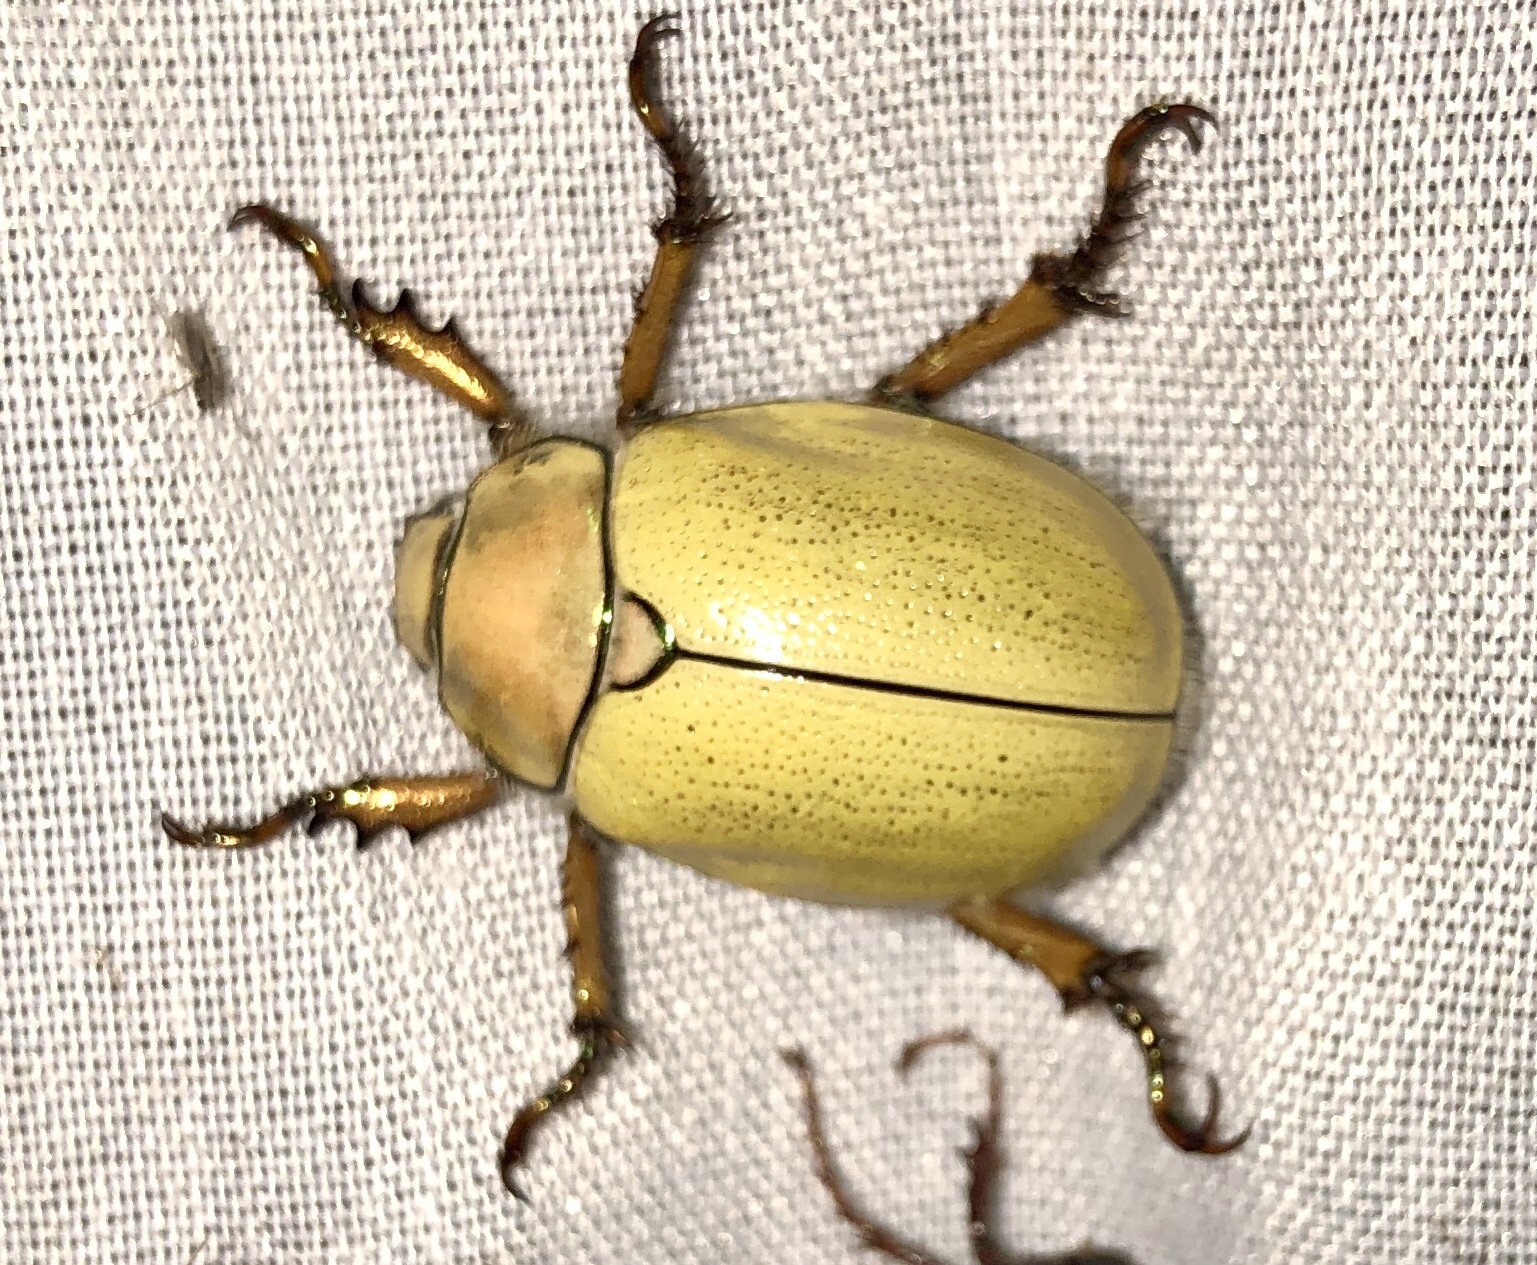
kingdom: Animalia
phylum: Arthropoda
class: Insecta
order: Coleoptera
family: Scarabaeidae
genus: Cotalpa
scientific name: Cotalpa lanigera
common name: Goldsmith beetle
